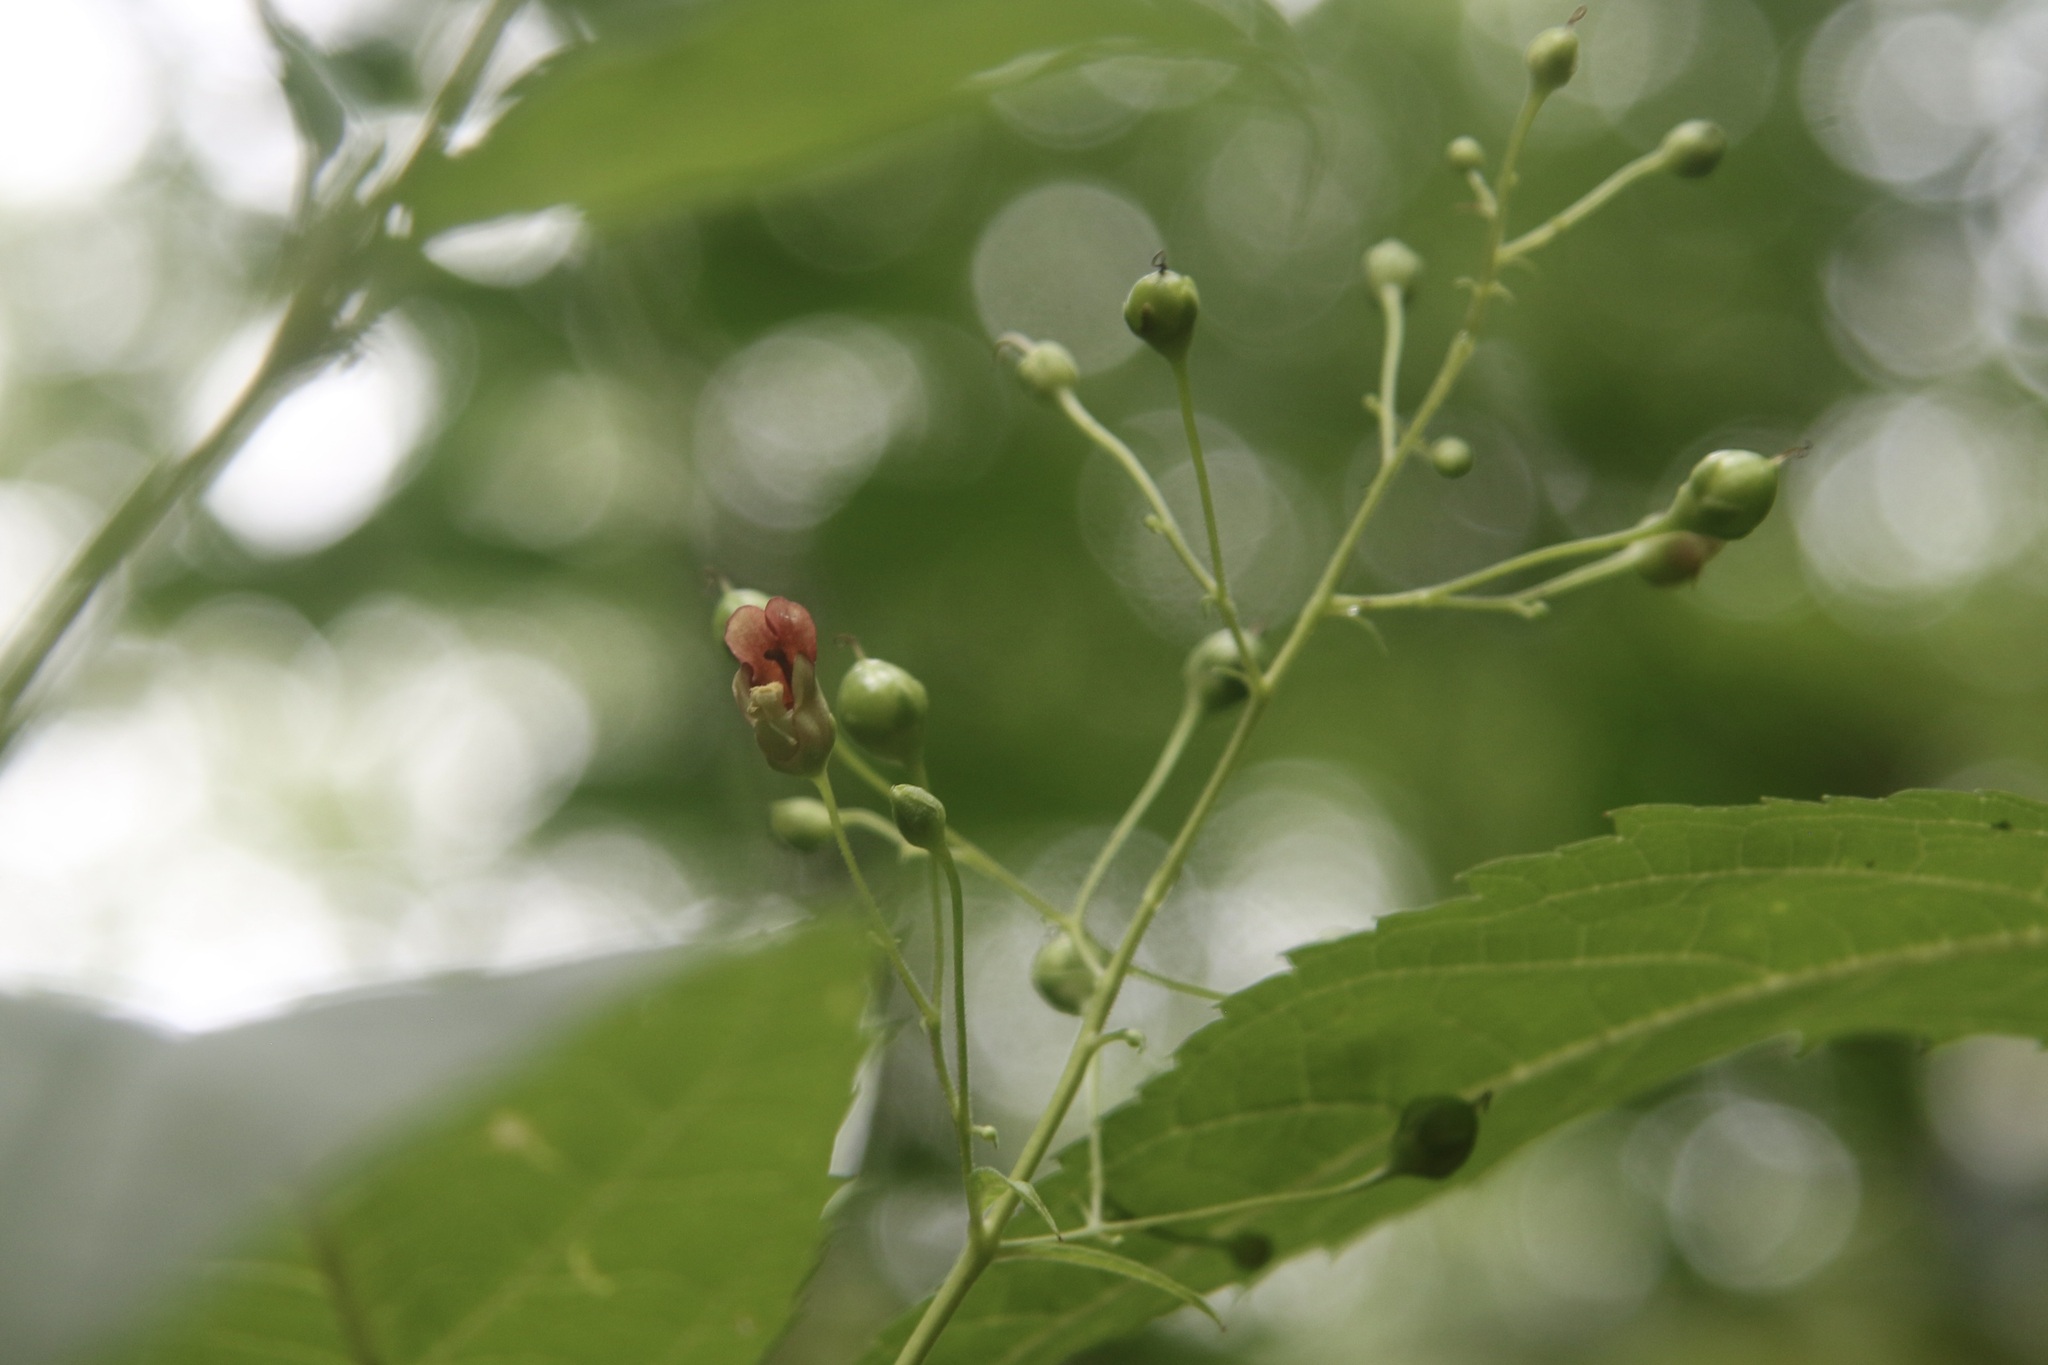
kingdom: Plantae
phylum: Tracheophyta
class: Magnoliopsida
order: Lamiales
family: Scrophulariaceae
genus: Scrophularia
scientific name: Scrophularia marilandica
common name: Eastern figwort
